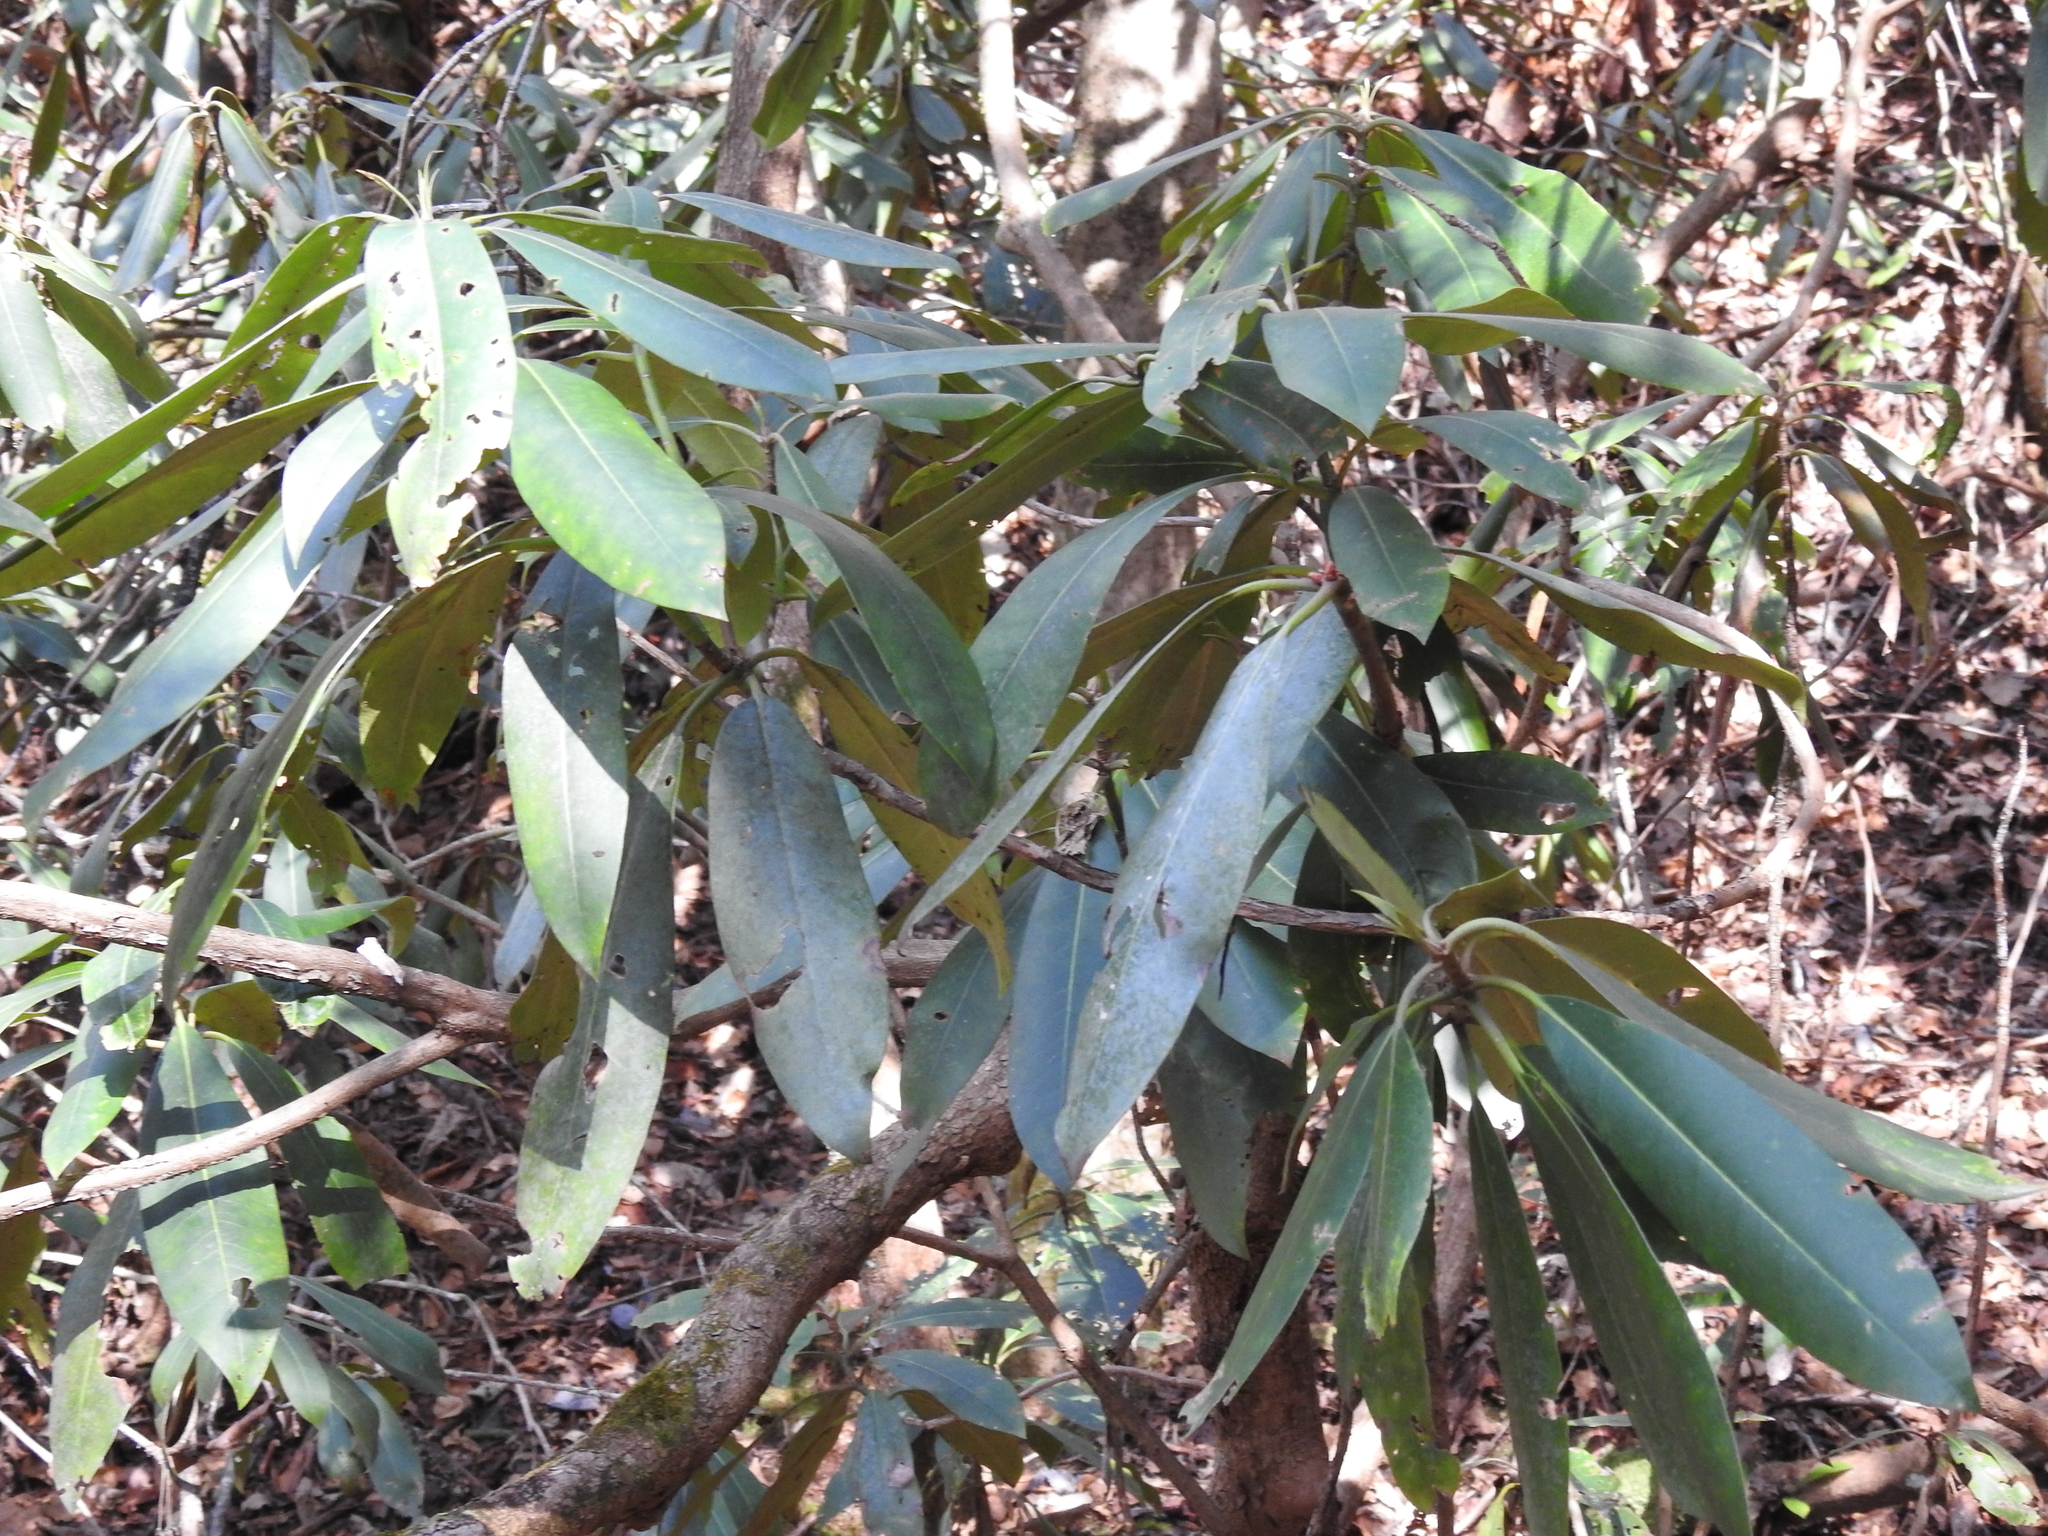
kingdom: Plantae
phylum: Tracheophyta
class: Magnoliopsida
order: Ericales
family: Ericaceae
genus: Rhododendron
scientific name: Rhododendron maximum
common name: Great rhododendron
